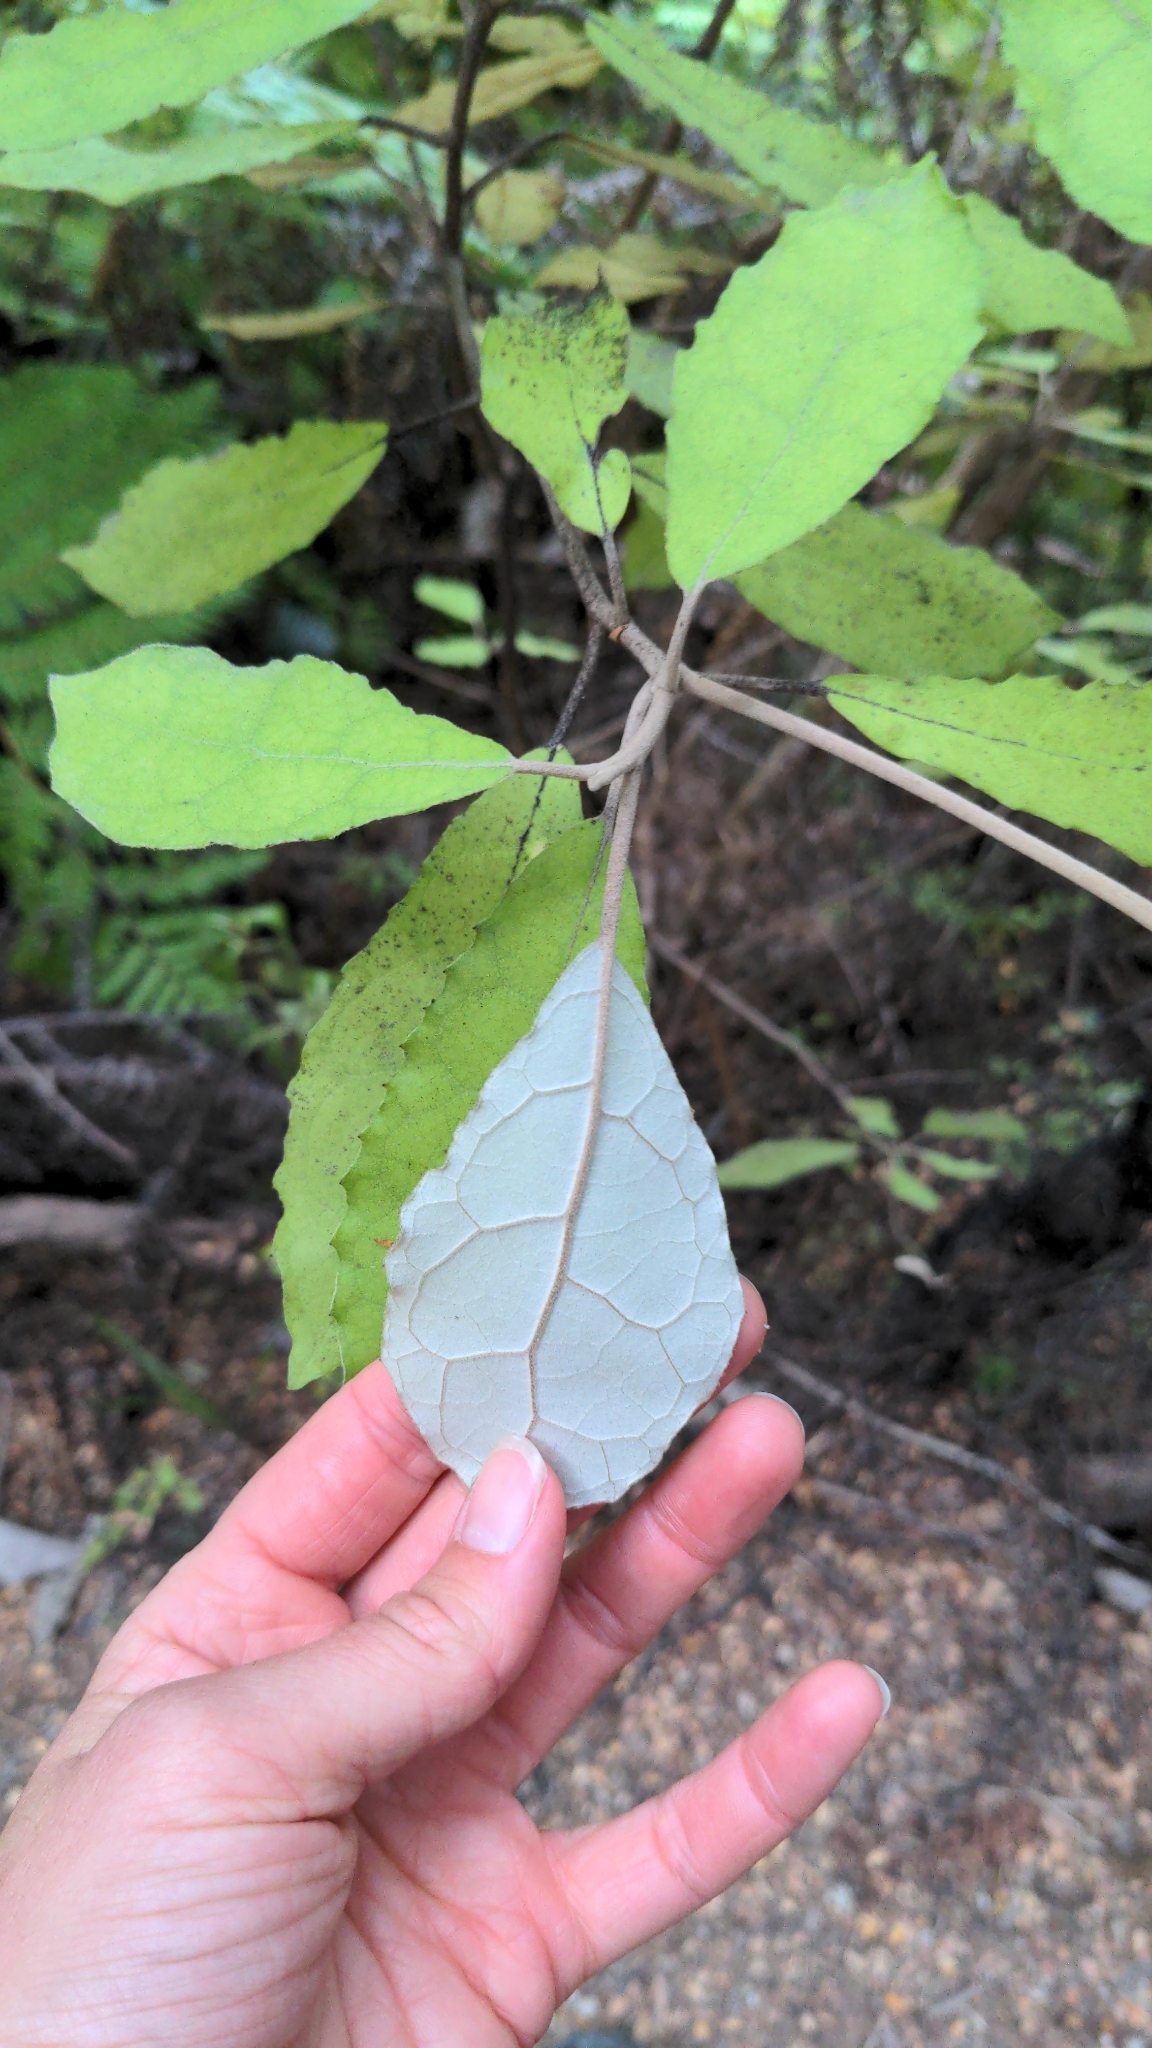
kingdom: Plantae
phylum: Tracheophyta
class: Magnoliopsida
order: Asterales
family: Asteraceae
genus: Olearia
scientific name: Olearia rani
